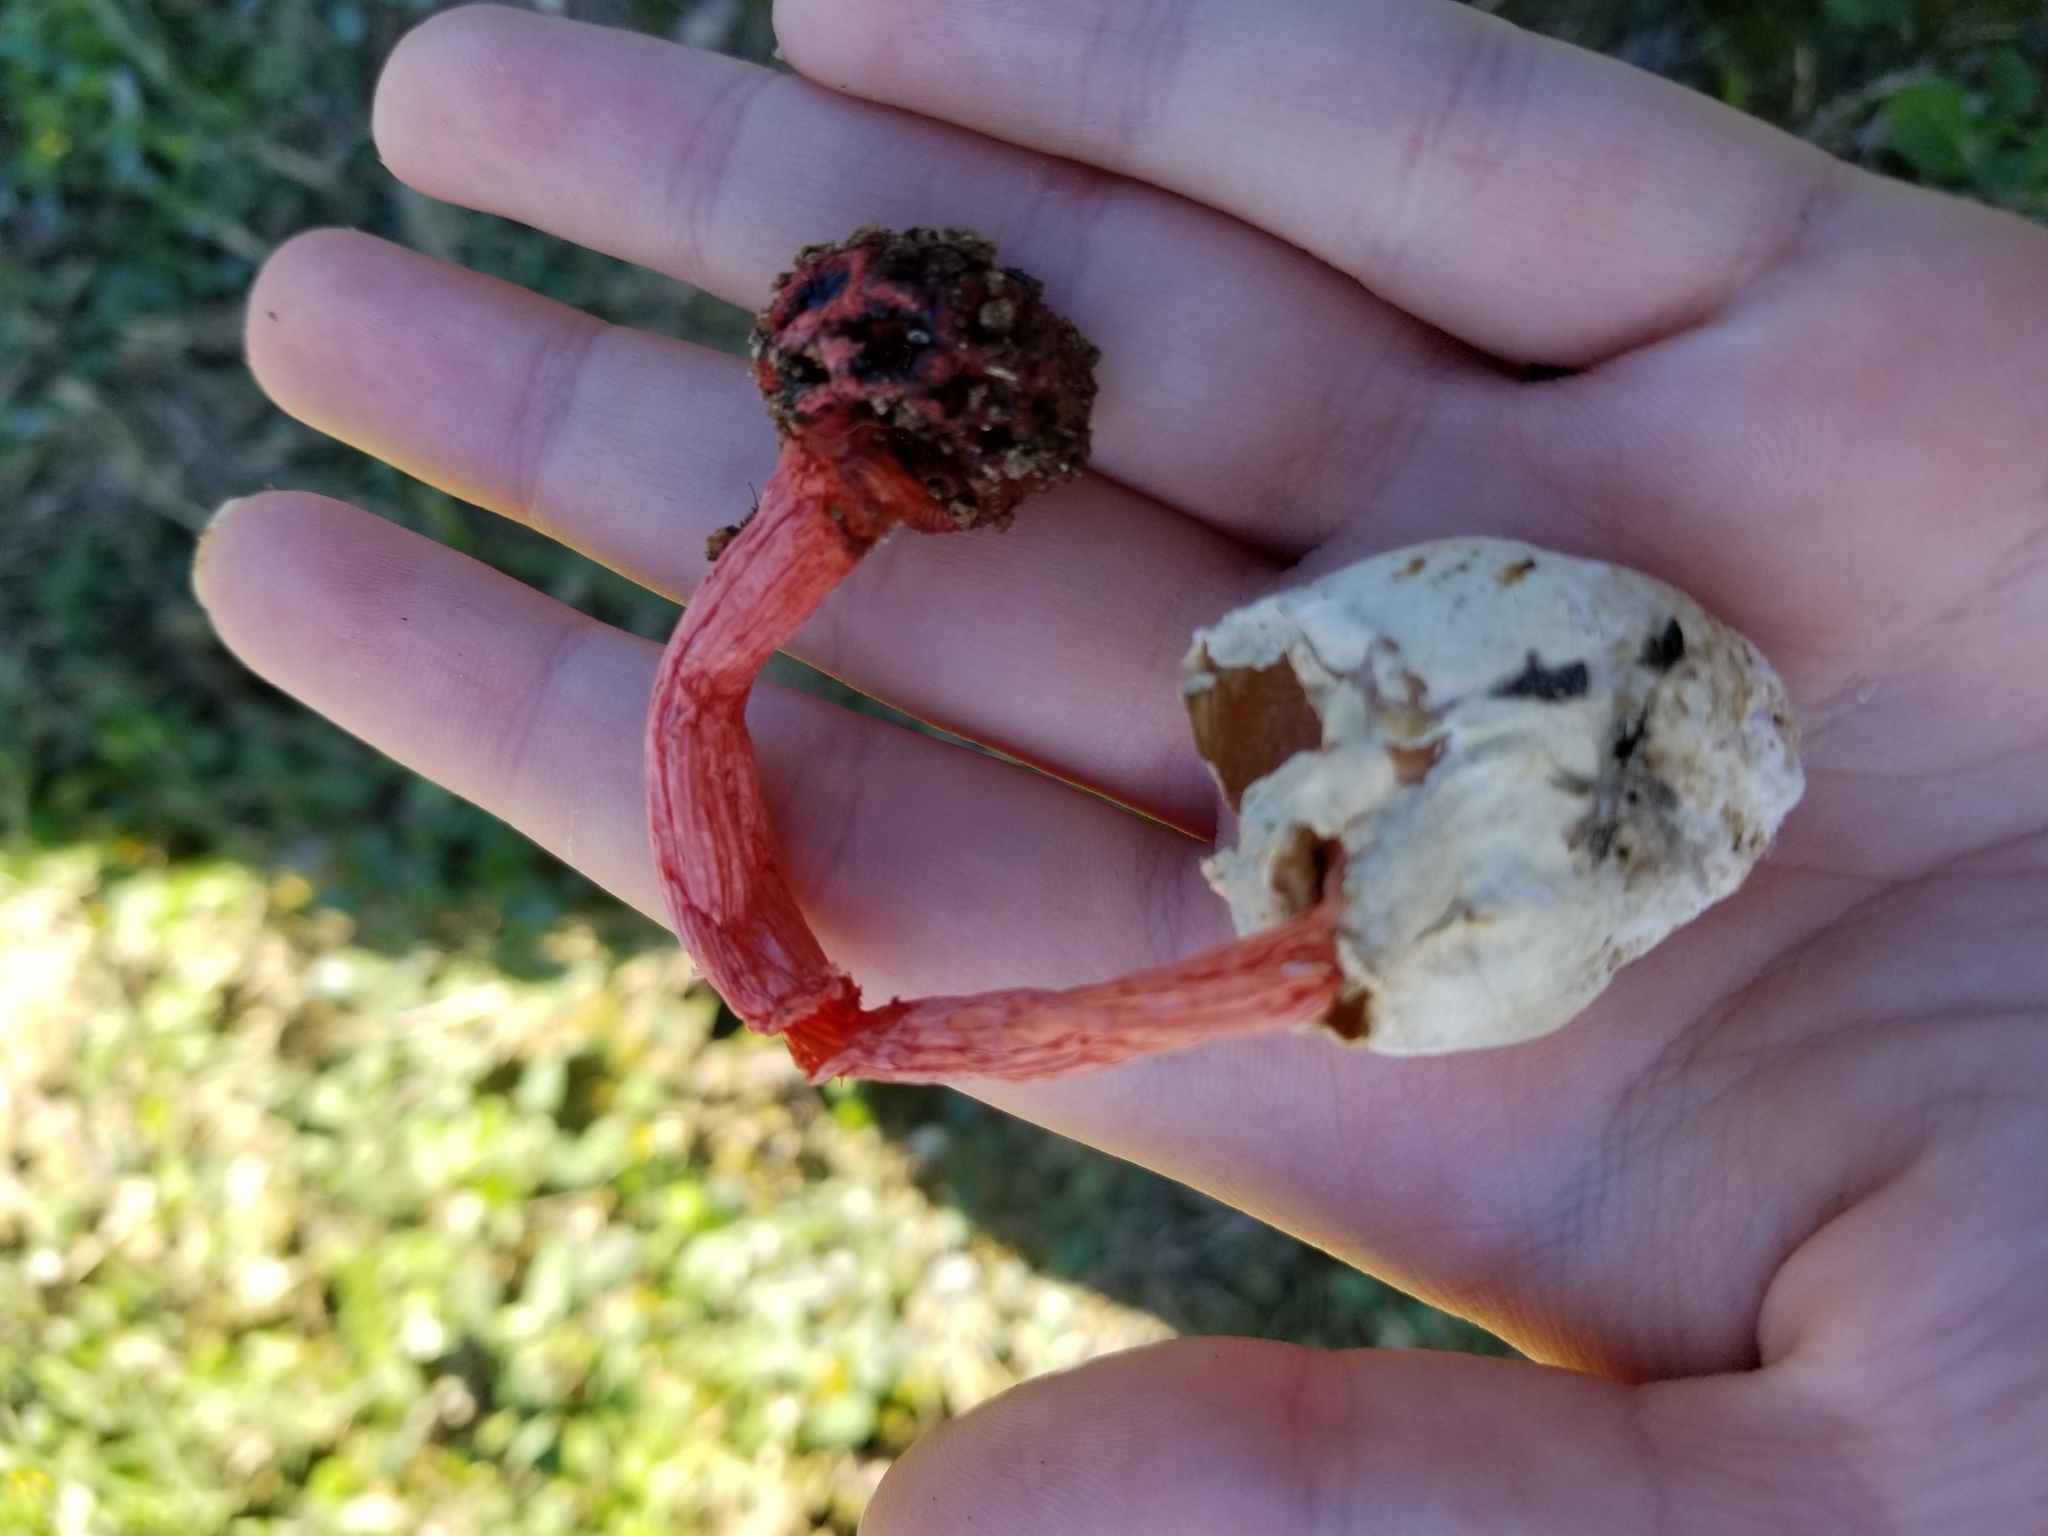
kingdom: Fungi
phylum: Basidiomycota
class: Agaricomycetes
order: Phallales
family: Phallaceae
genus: Lysurus
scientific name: Lysurus periphragmoides
